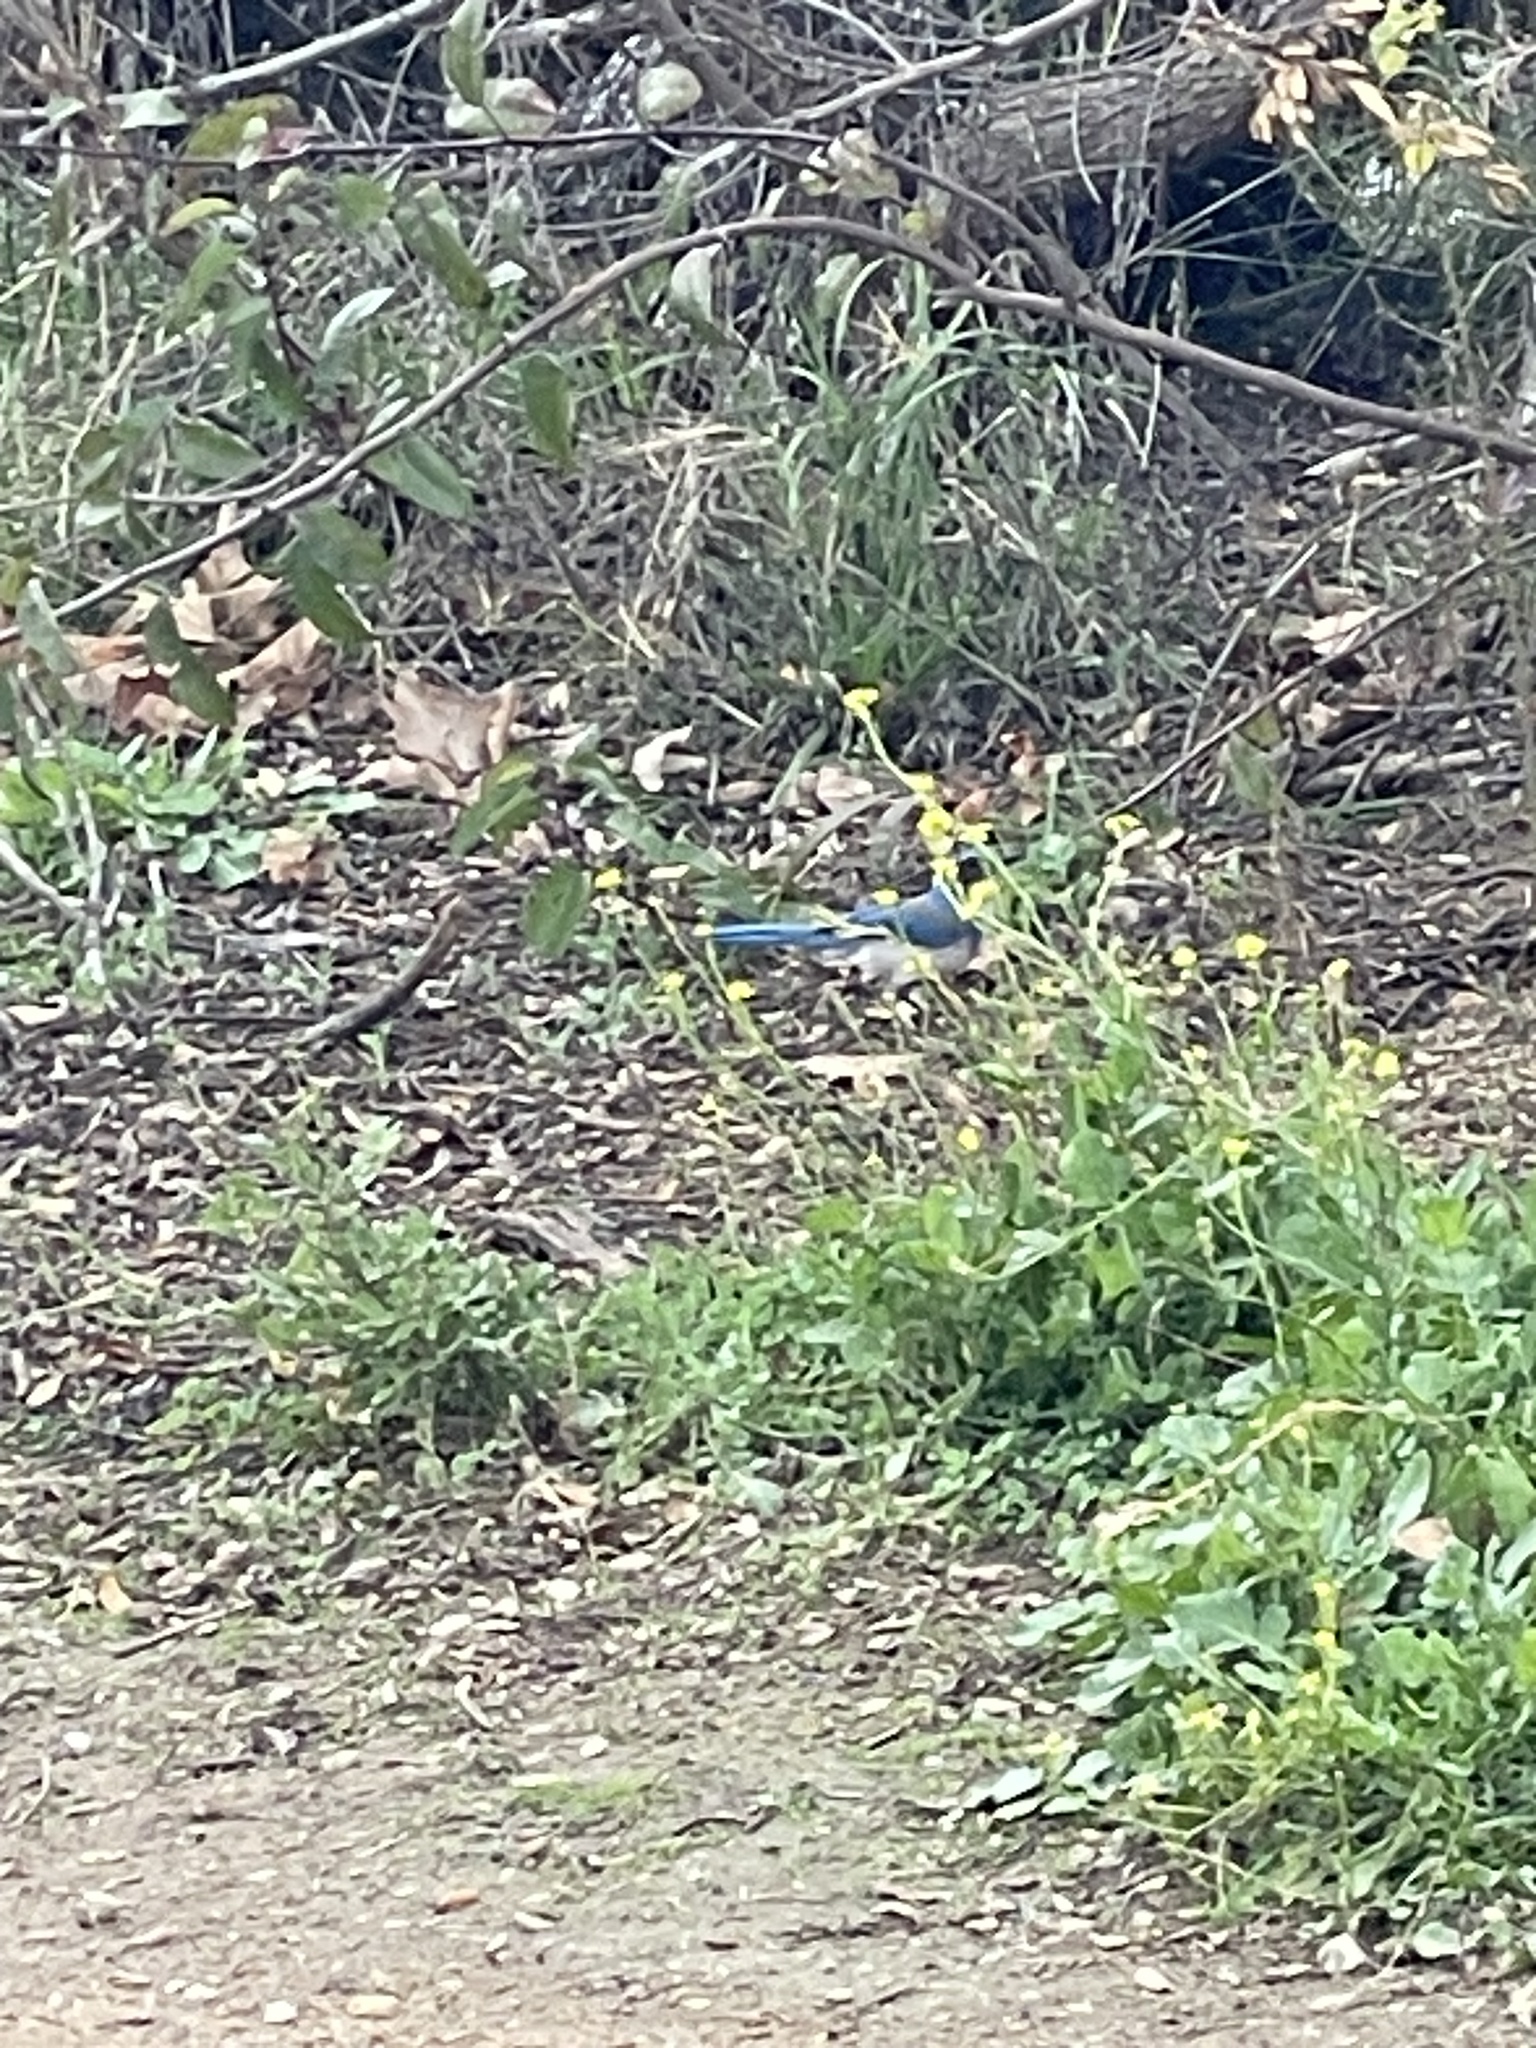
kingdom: Animalia
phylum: Chordata
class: Aves
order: Passeriformes
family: Corvidae
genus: Aphelocoma
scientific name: Aphelocoma californica
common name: California scrub-jay
